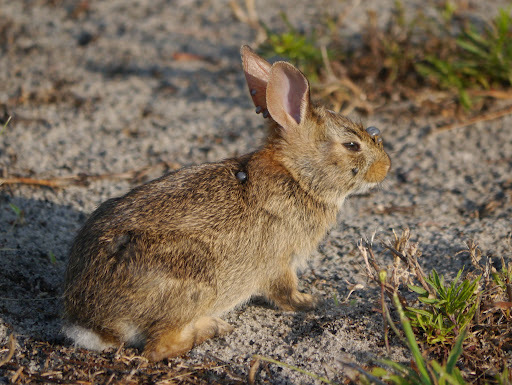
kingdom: Animalia
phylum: Chordata
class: Mammalia
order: Lagomorpha
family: Leporidae
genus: Sylvilagus
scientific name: Sylvilagus floridanus
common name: Eastern cottontail
